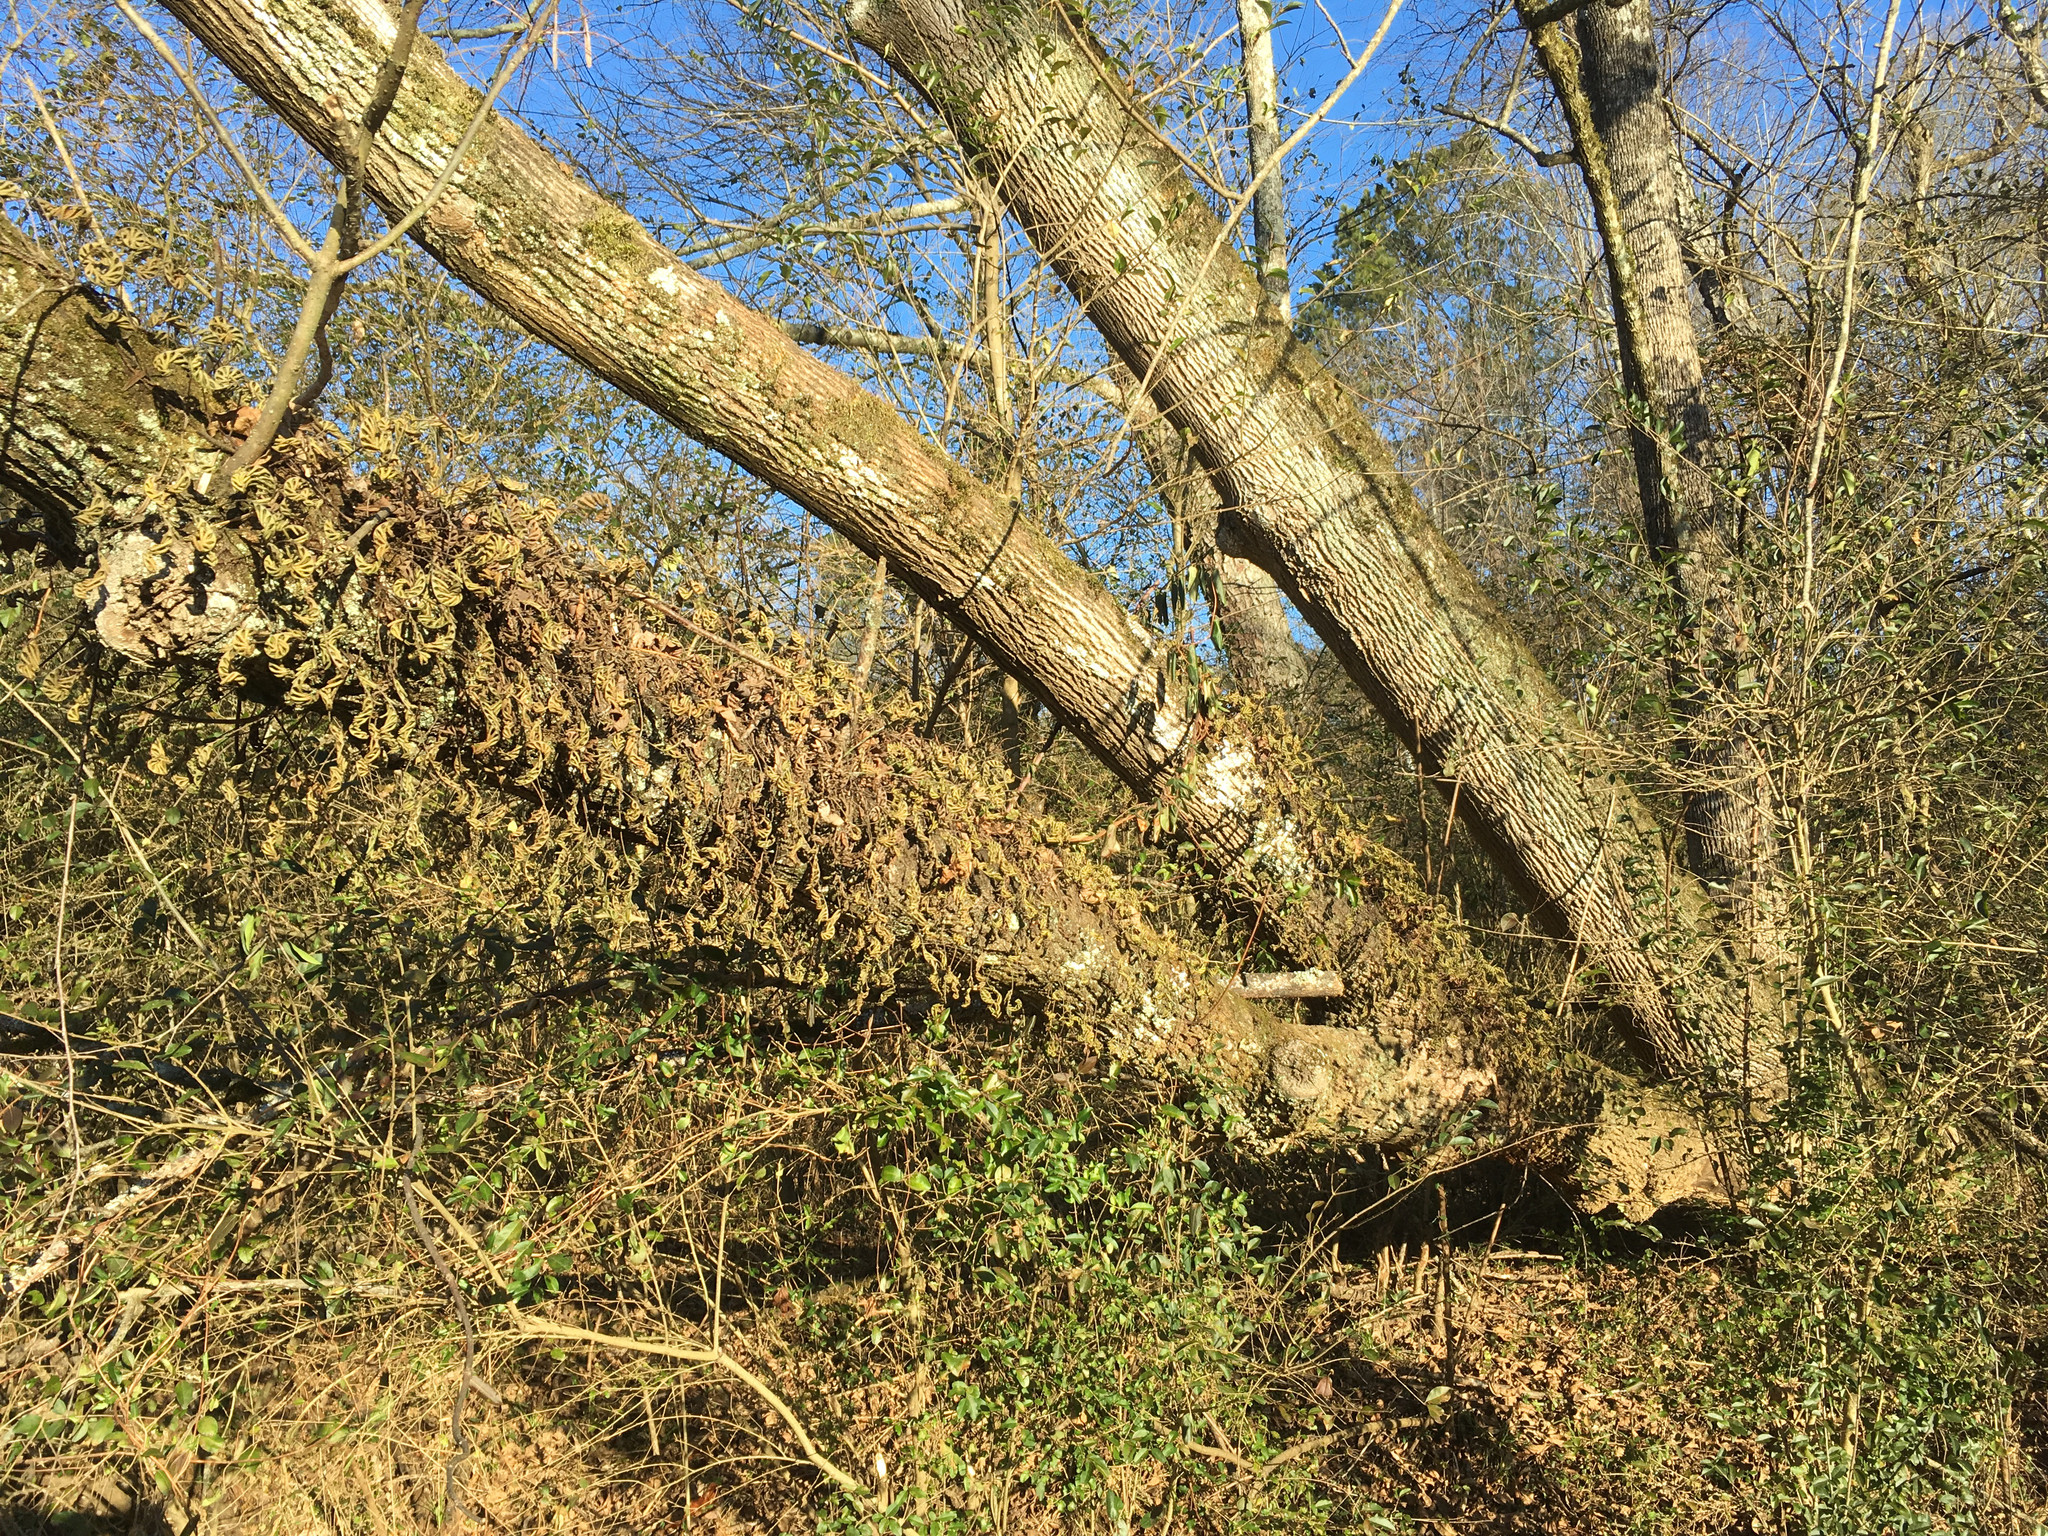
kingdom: Plantae
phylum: Tracheophyta
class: Polypodiopsida
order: Polypodiales
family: Polypodiaceae
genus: Pleopeltis
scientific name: Pleopeltis michauxiana
